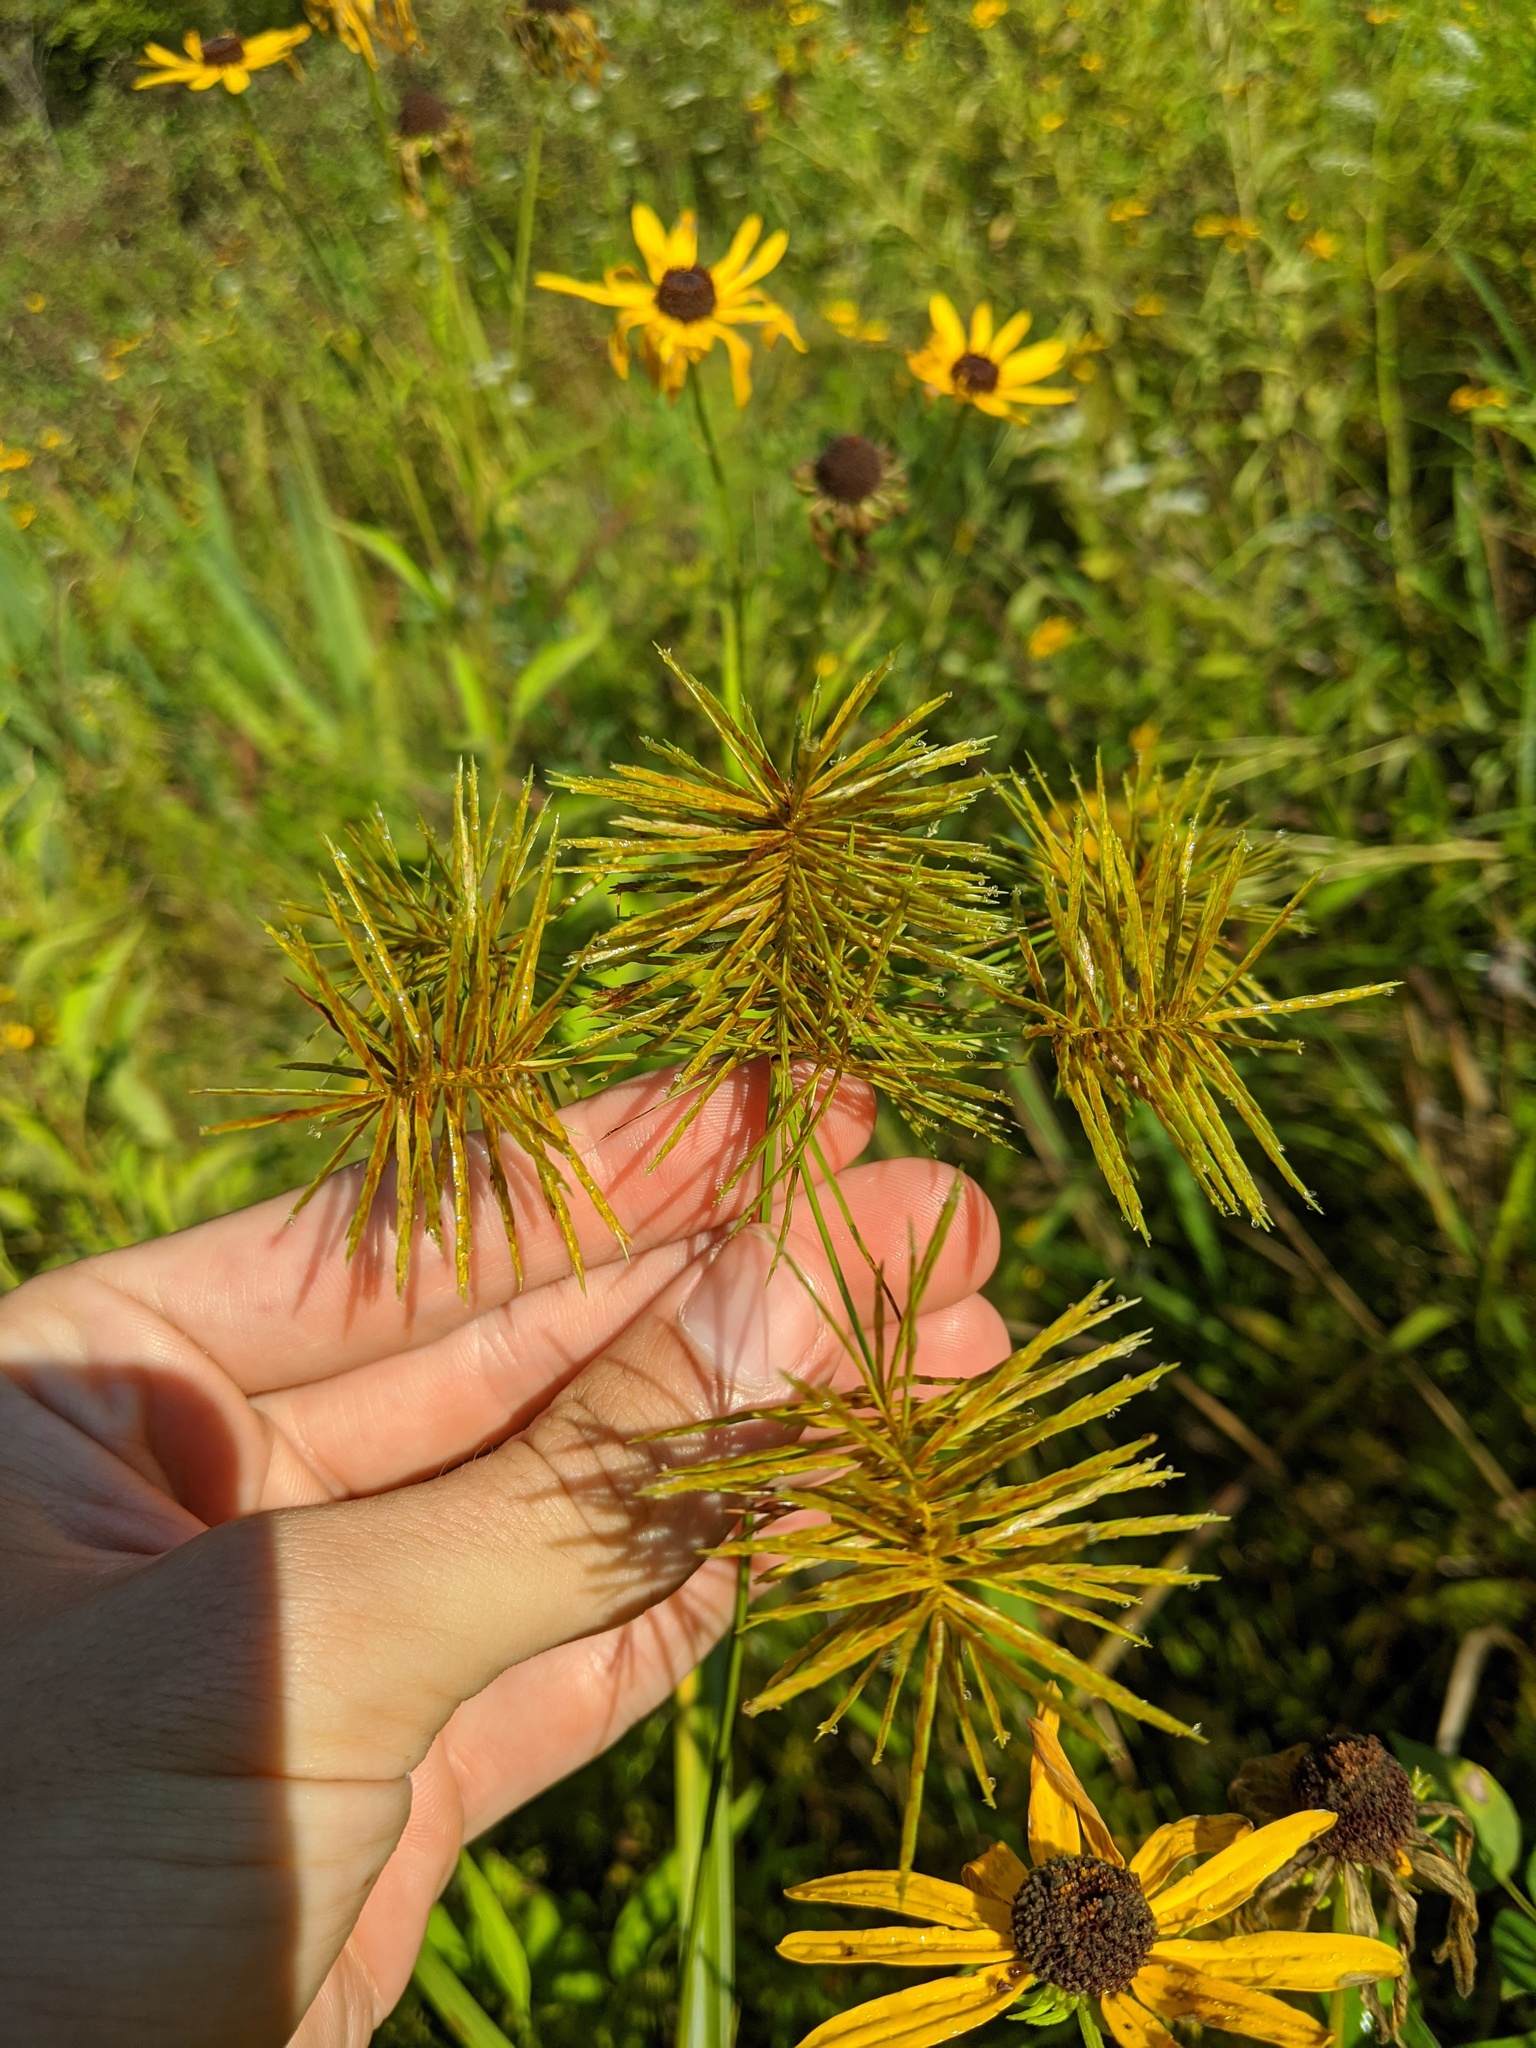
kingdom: Plantae
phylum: Tracheophyta
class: Liliopsida
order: Poales
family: Cyperaceae
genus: Cyperus
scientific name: Cyperus strigosus
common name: False nutsedge
